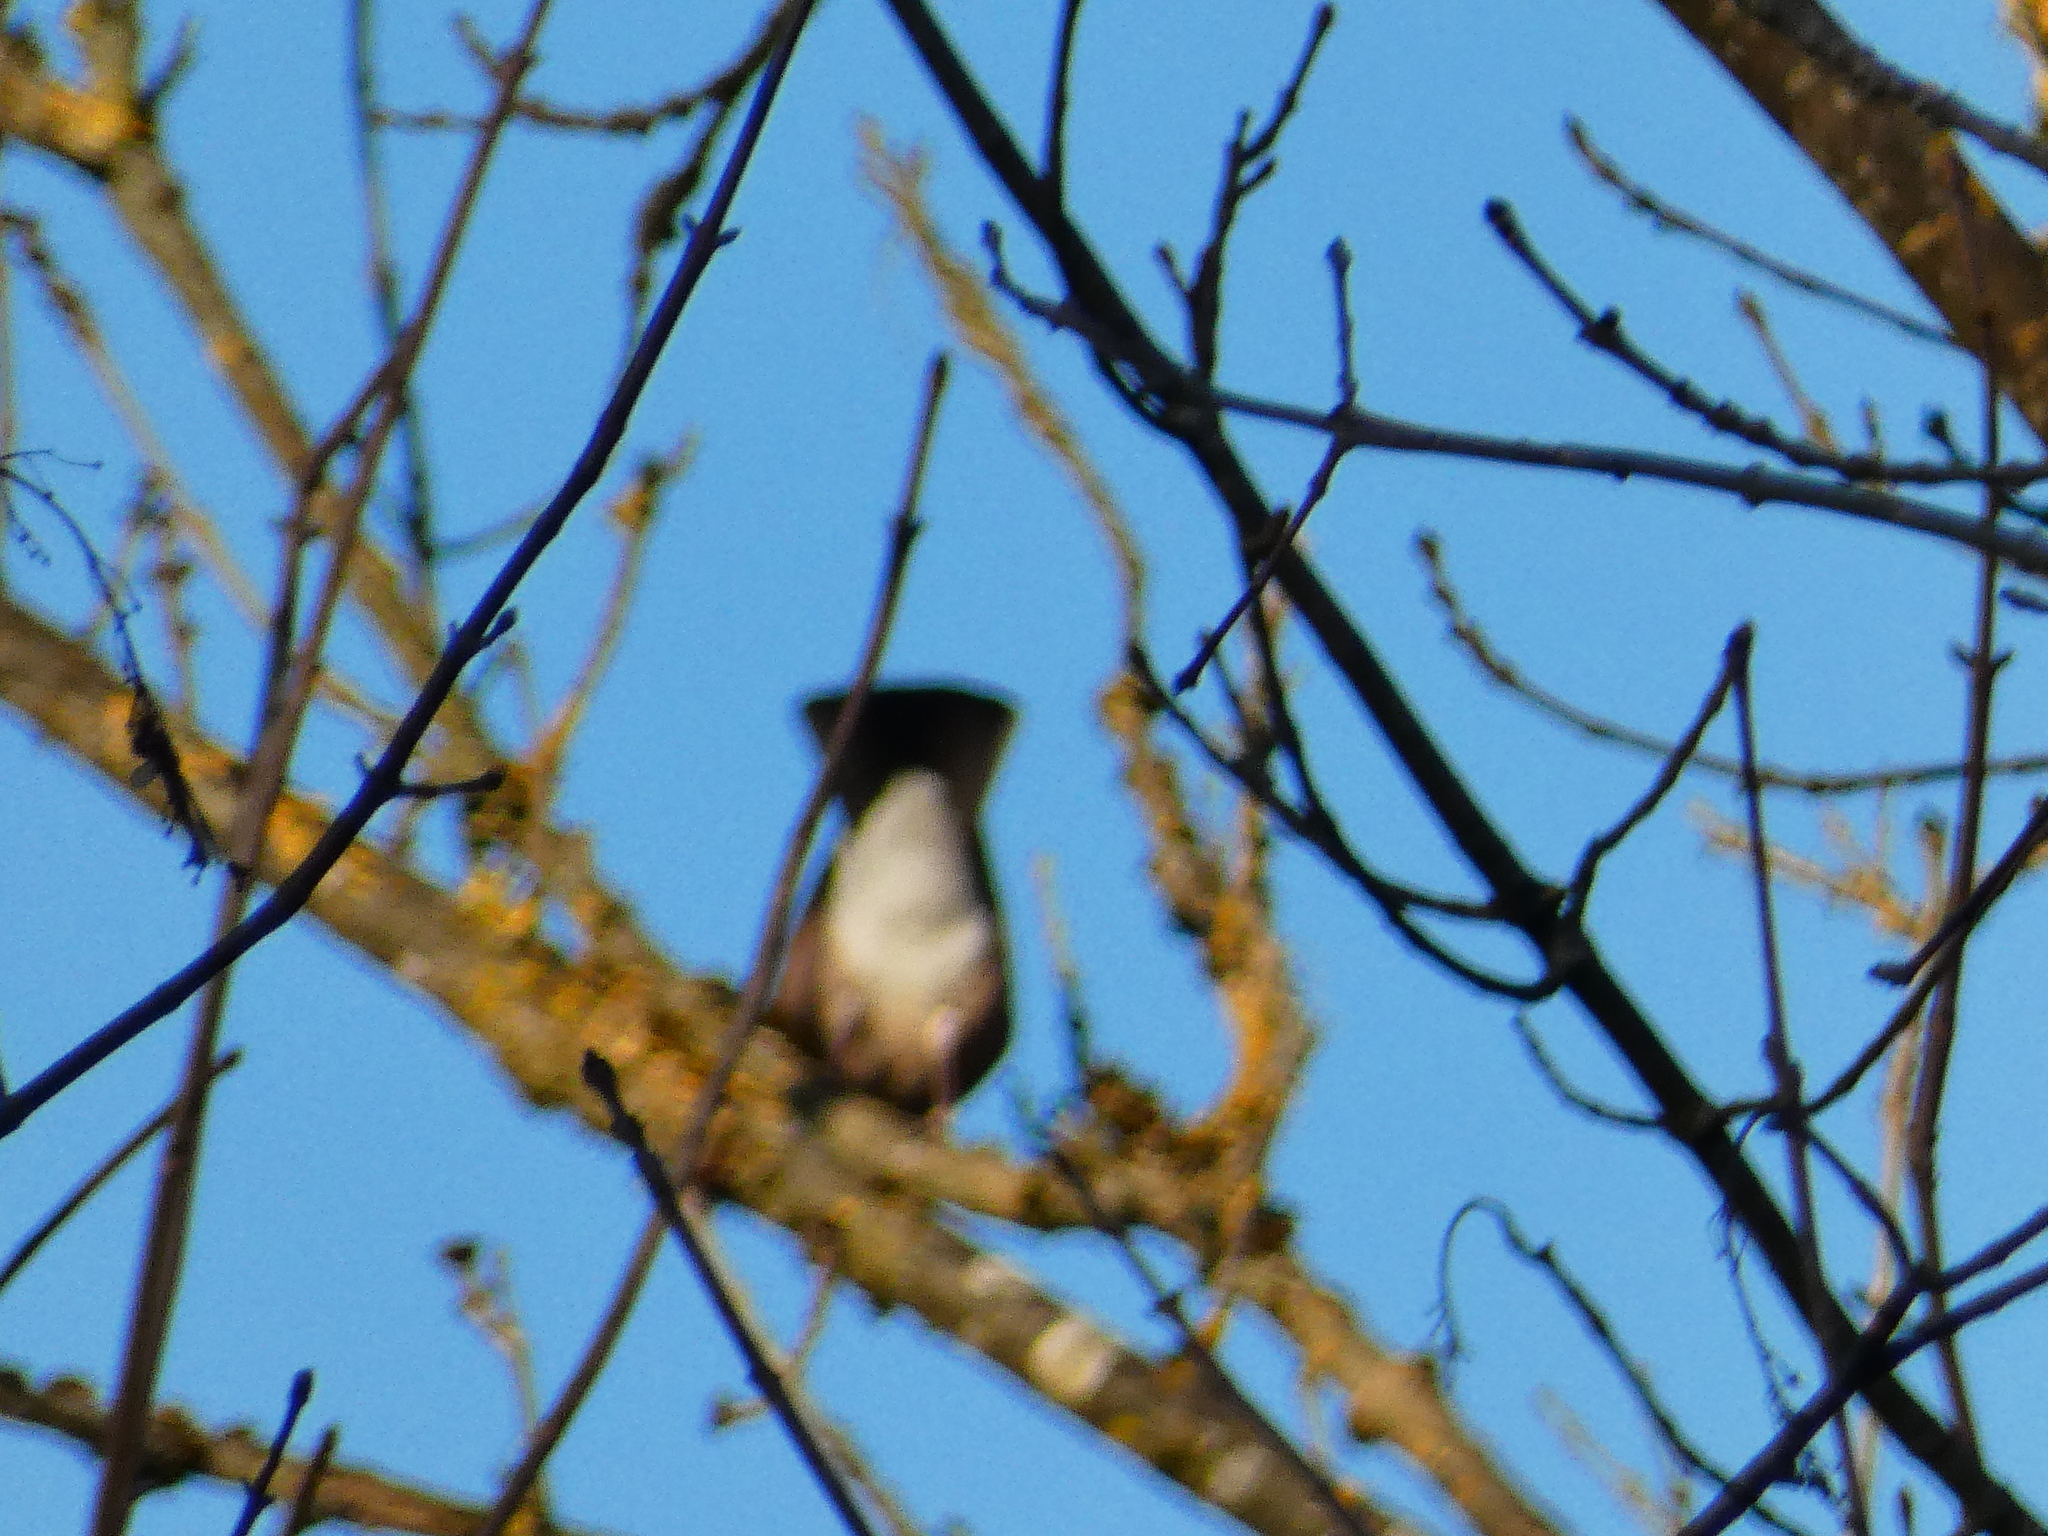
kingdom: Animalia
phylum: Chordata
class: Aves
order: Passeriformes
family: Corvidae
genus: Garrulus
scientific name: Garrulus glandarius
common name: Eurasian jay
